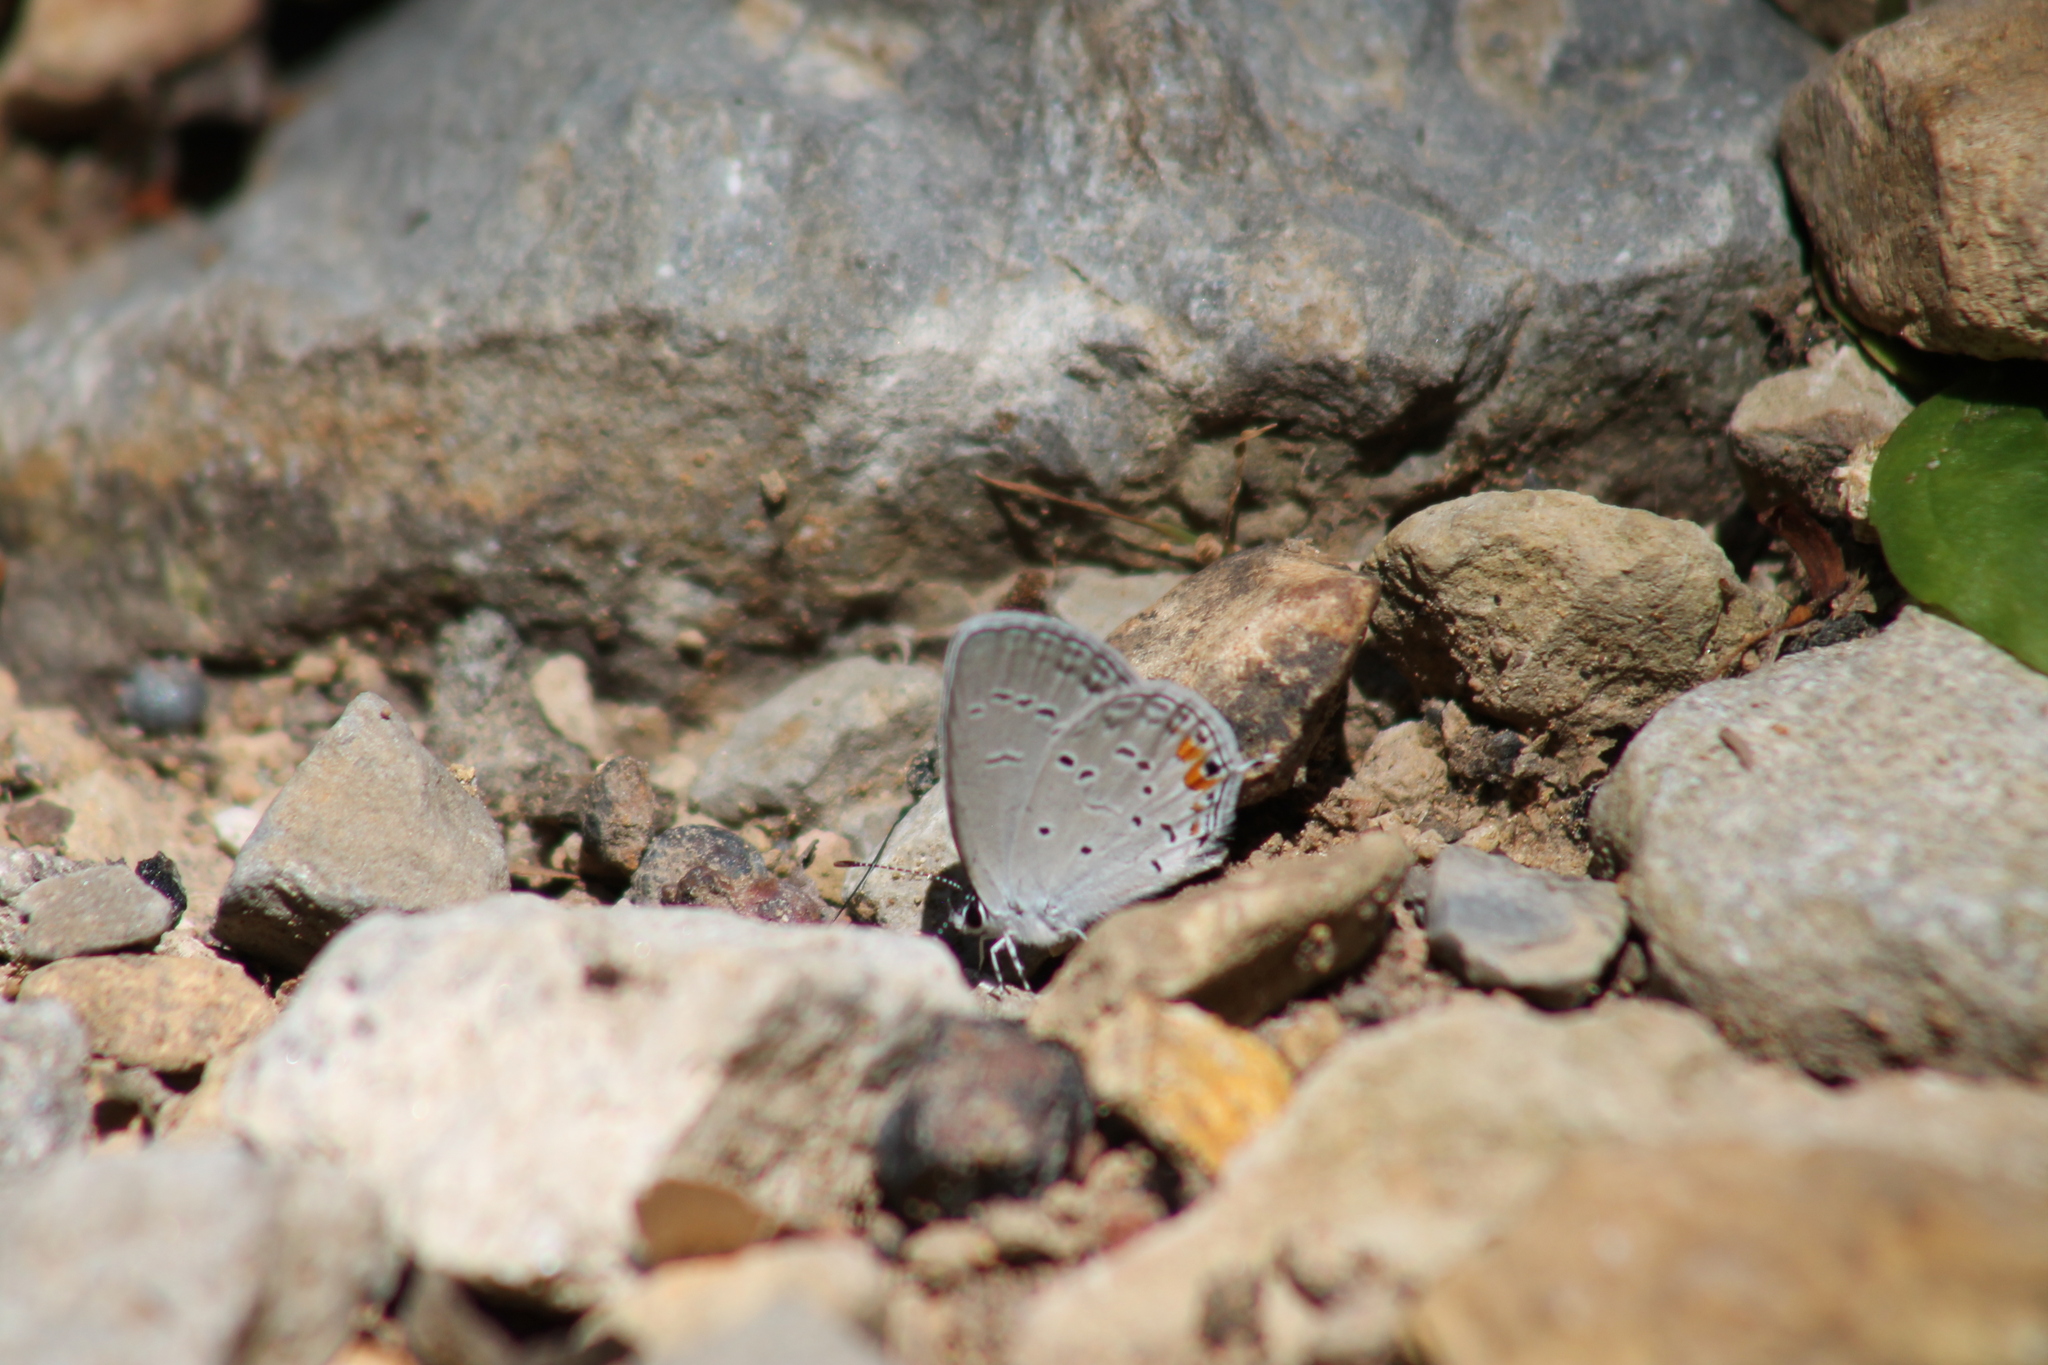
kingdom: Animalia
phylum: Arthropoda
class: Insecta
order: Lepidoptera
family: Lycaenidae
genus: Elkalyce
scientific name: Elkalyce comyntas
